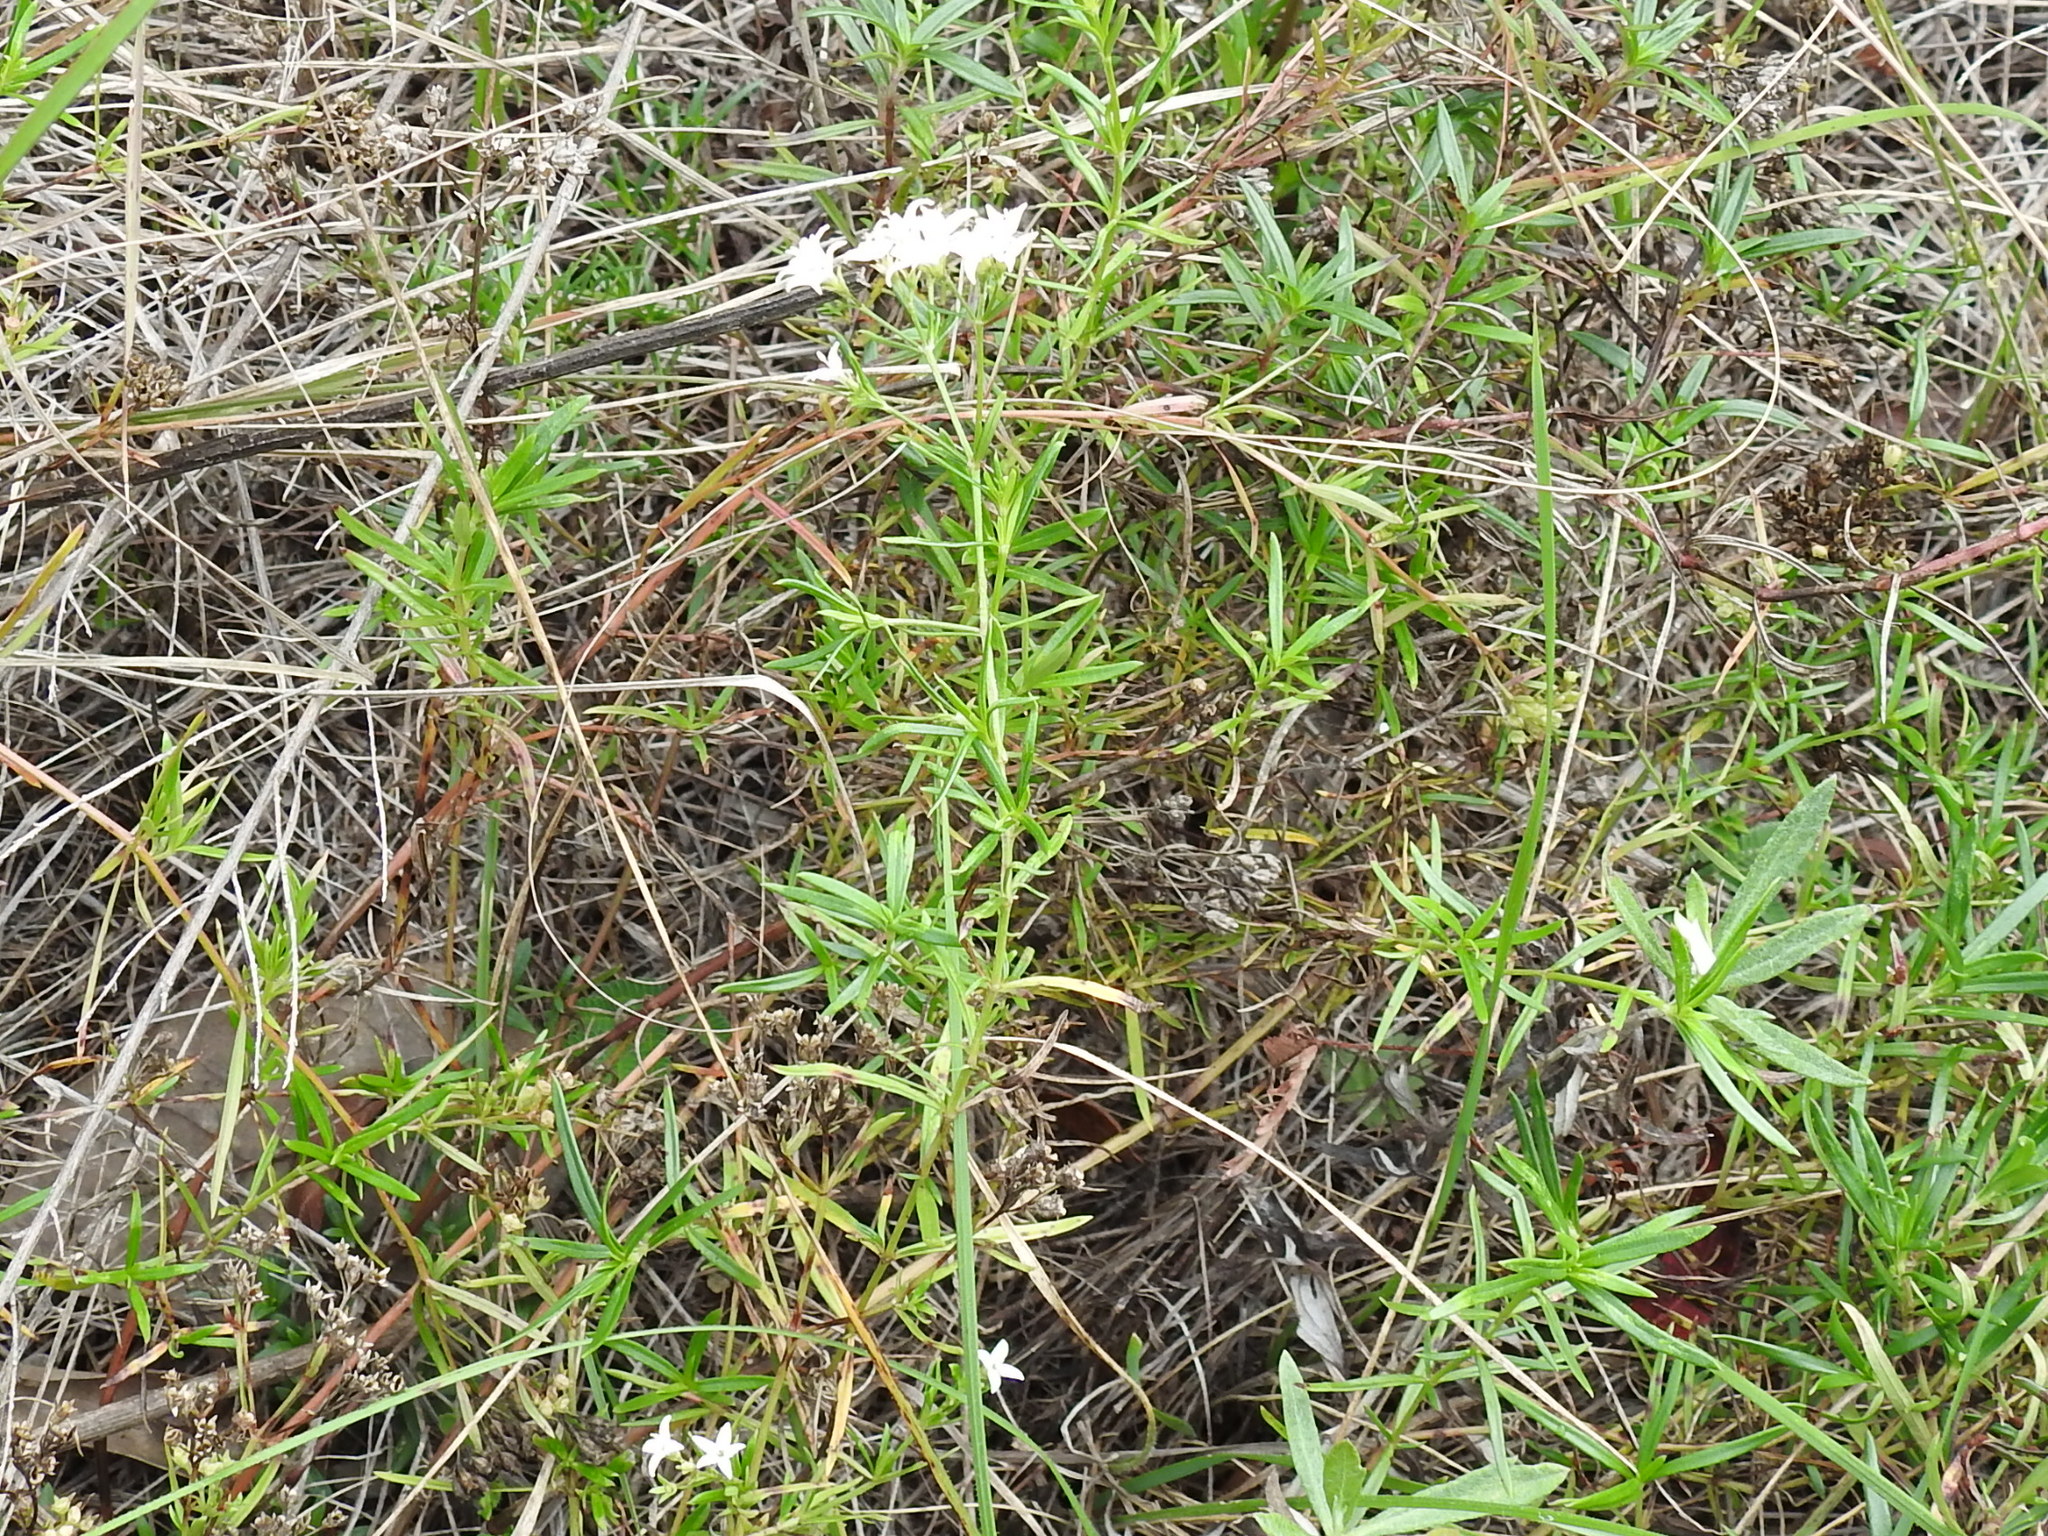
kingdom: Plantae
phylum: Tracheophyta
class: Magnoliopsida
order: Gentianales
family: Rubiaceae
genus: Stenaria
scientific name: Stenaria nigricans
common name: Diamondflowers
